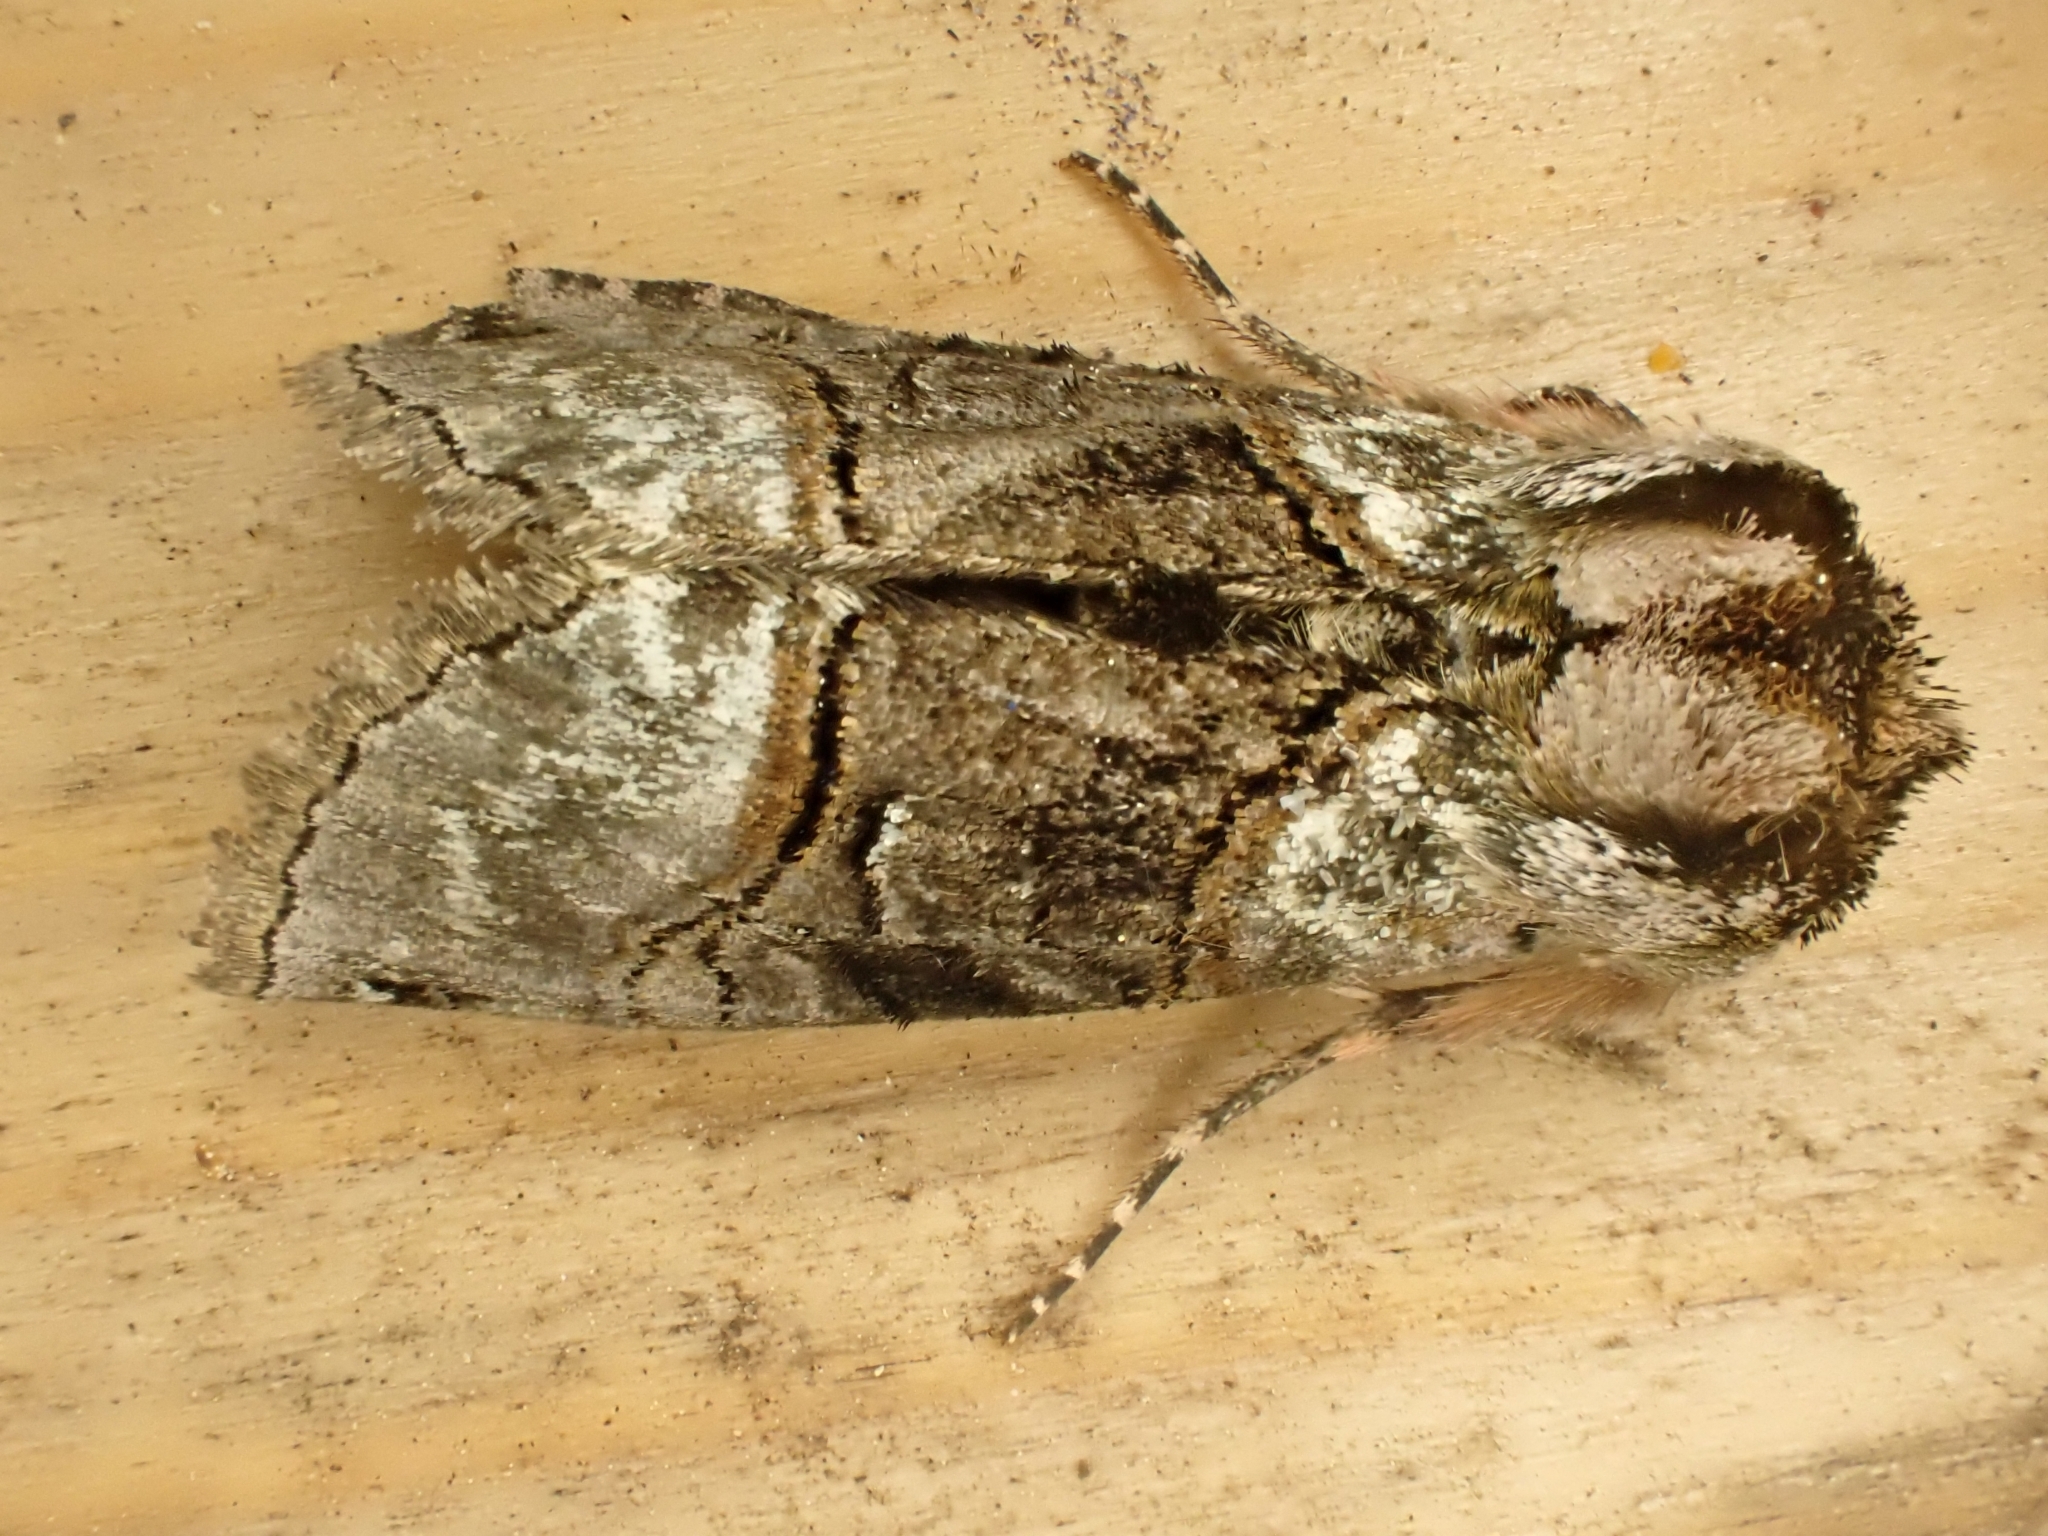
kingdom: Animalia
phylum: Arthropoda
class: Insecta
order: Lepidoptera
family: Noctuidae
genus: Abrostola
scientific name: Abrostola tripartita
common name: Spectacle
